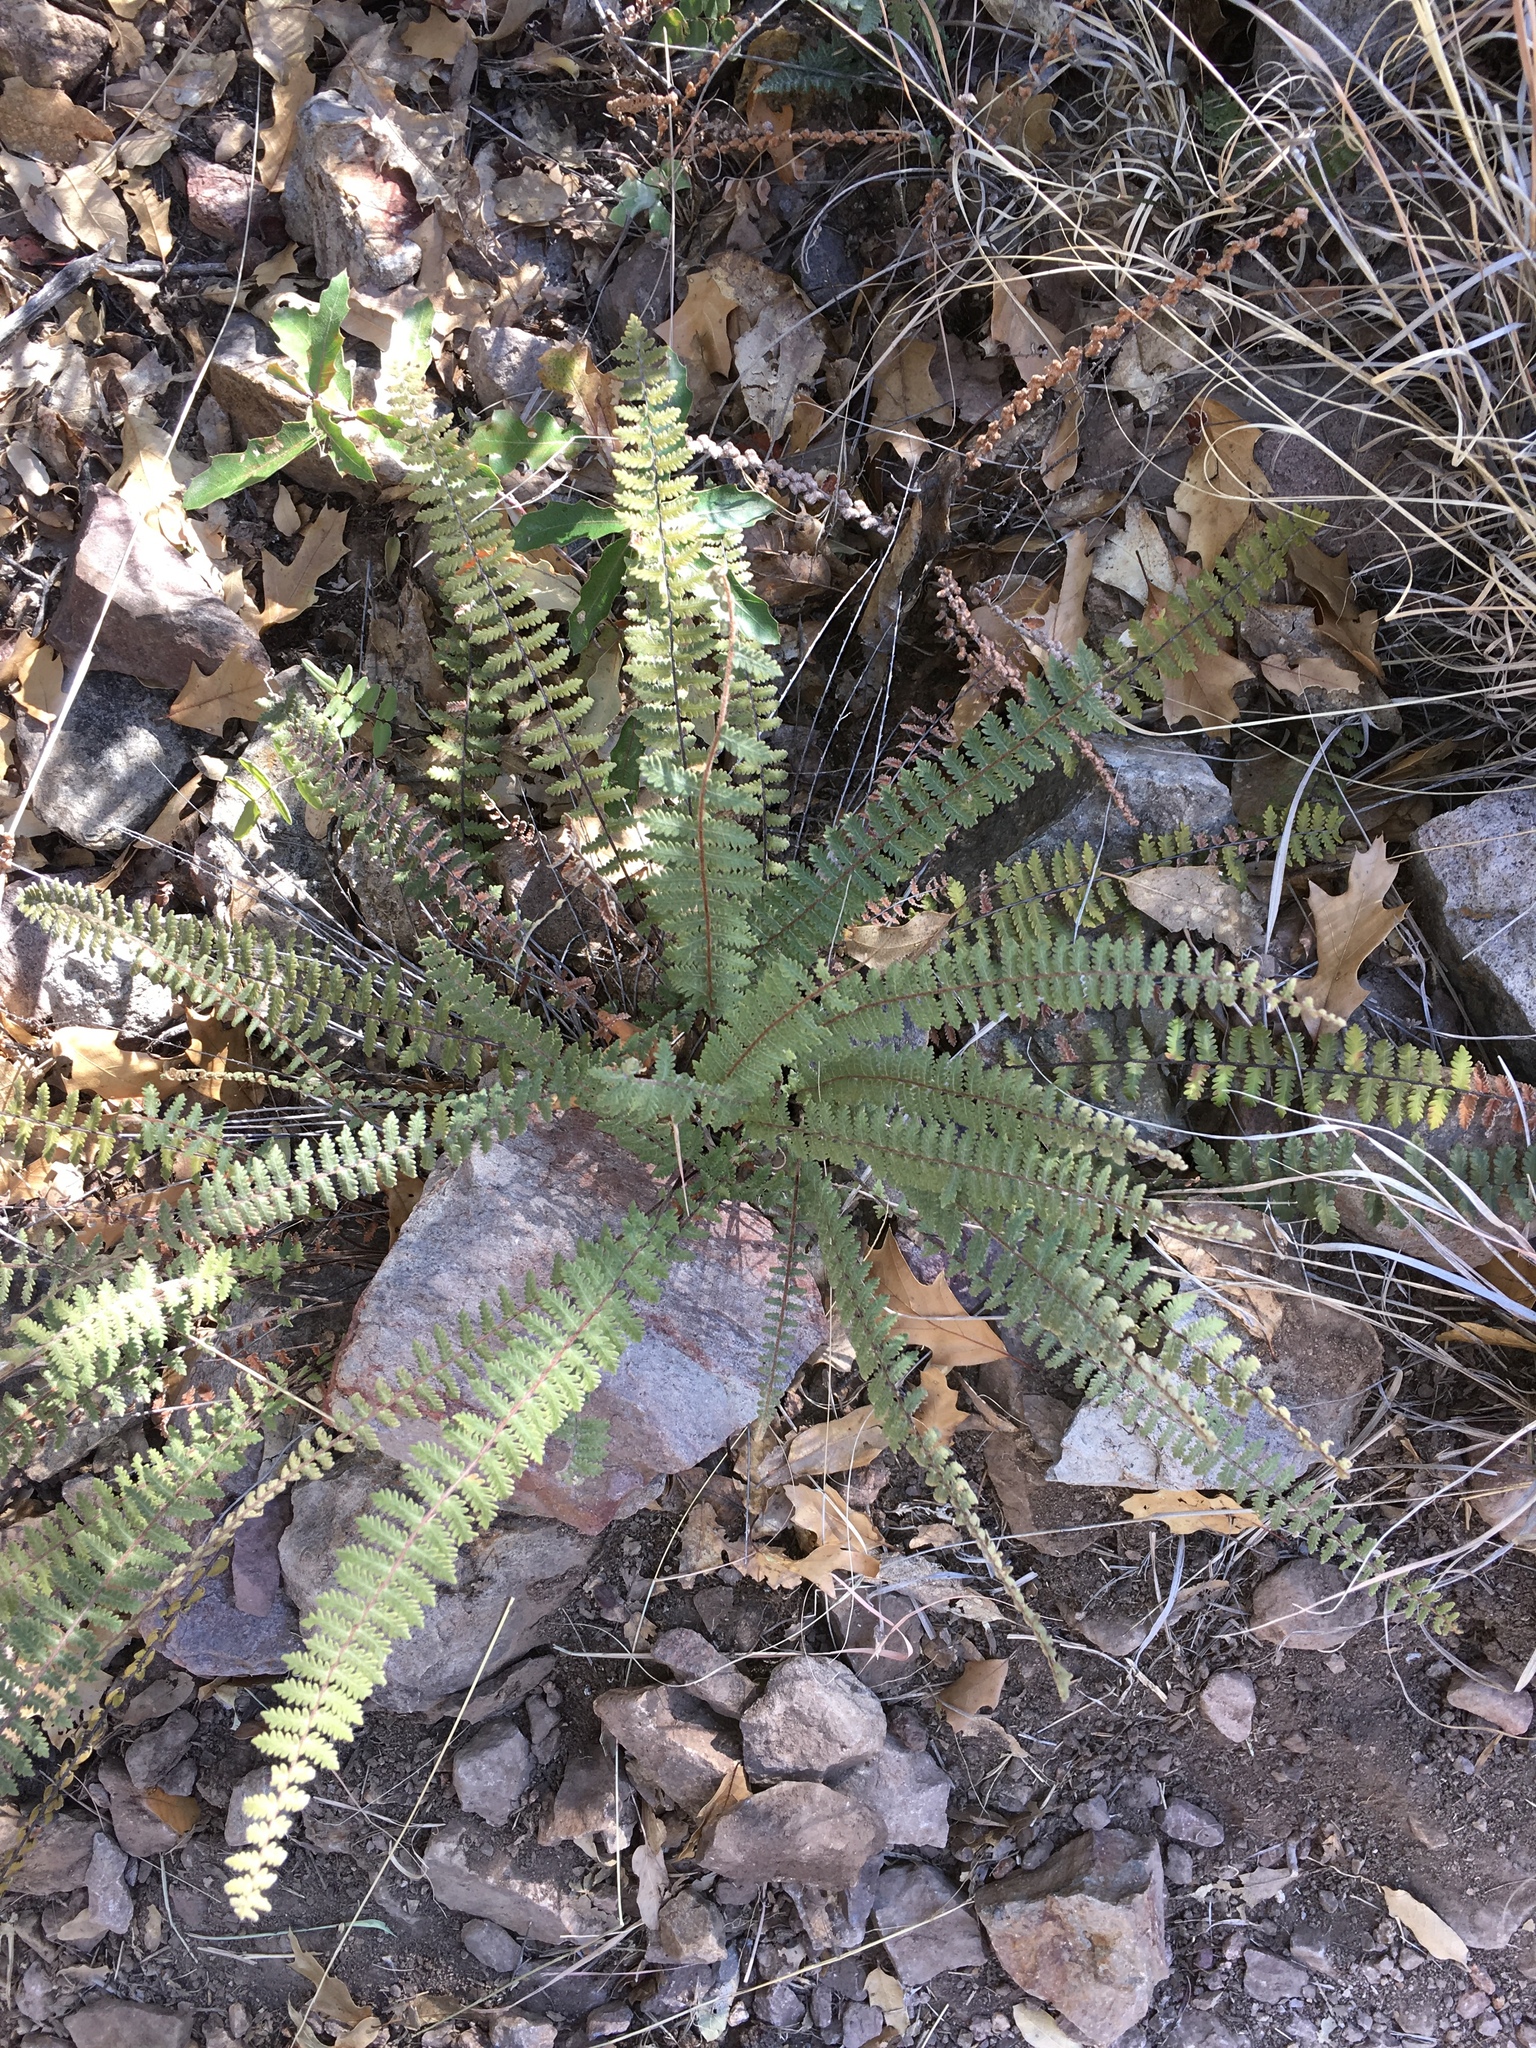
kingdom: Plantae
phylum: Tracheophyta
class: Polypodiopsida
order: Polypodiales
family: Pteridaceae
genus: Myriopteris
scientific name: Myriopteris aurea
